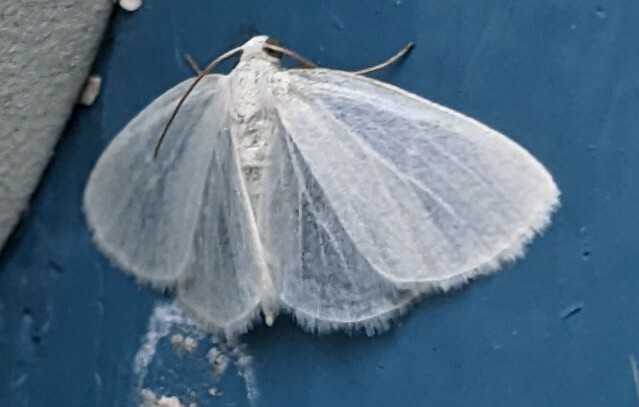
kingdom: Animalia
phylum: Arthropoda
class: Insecta
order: Lepidoptera
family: Geometridae
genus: Lomographa
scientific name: Lomographa vestaliata
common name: White spring moth
